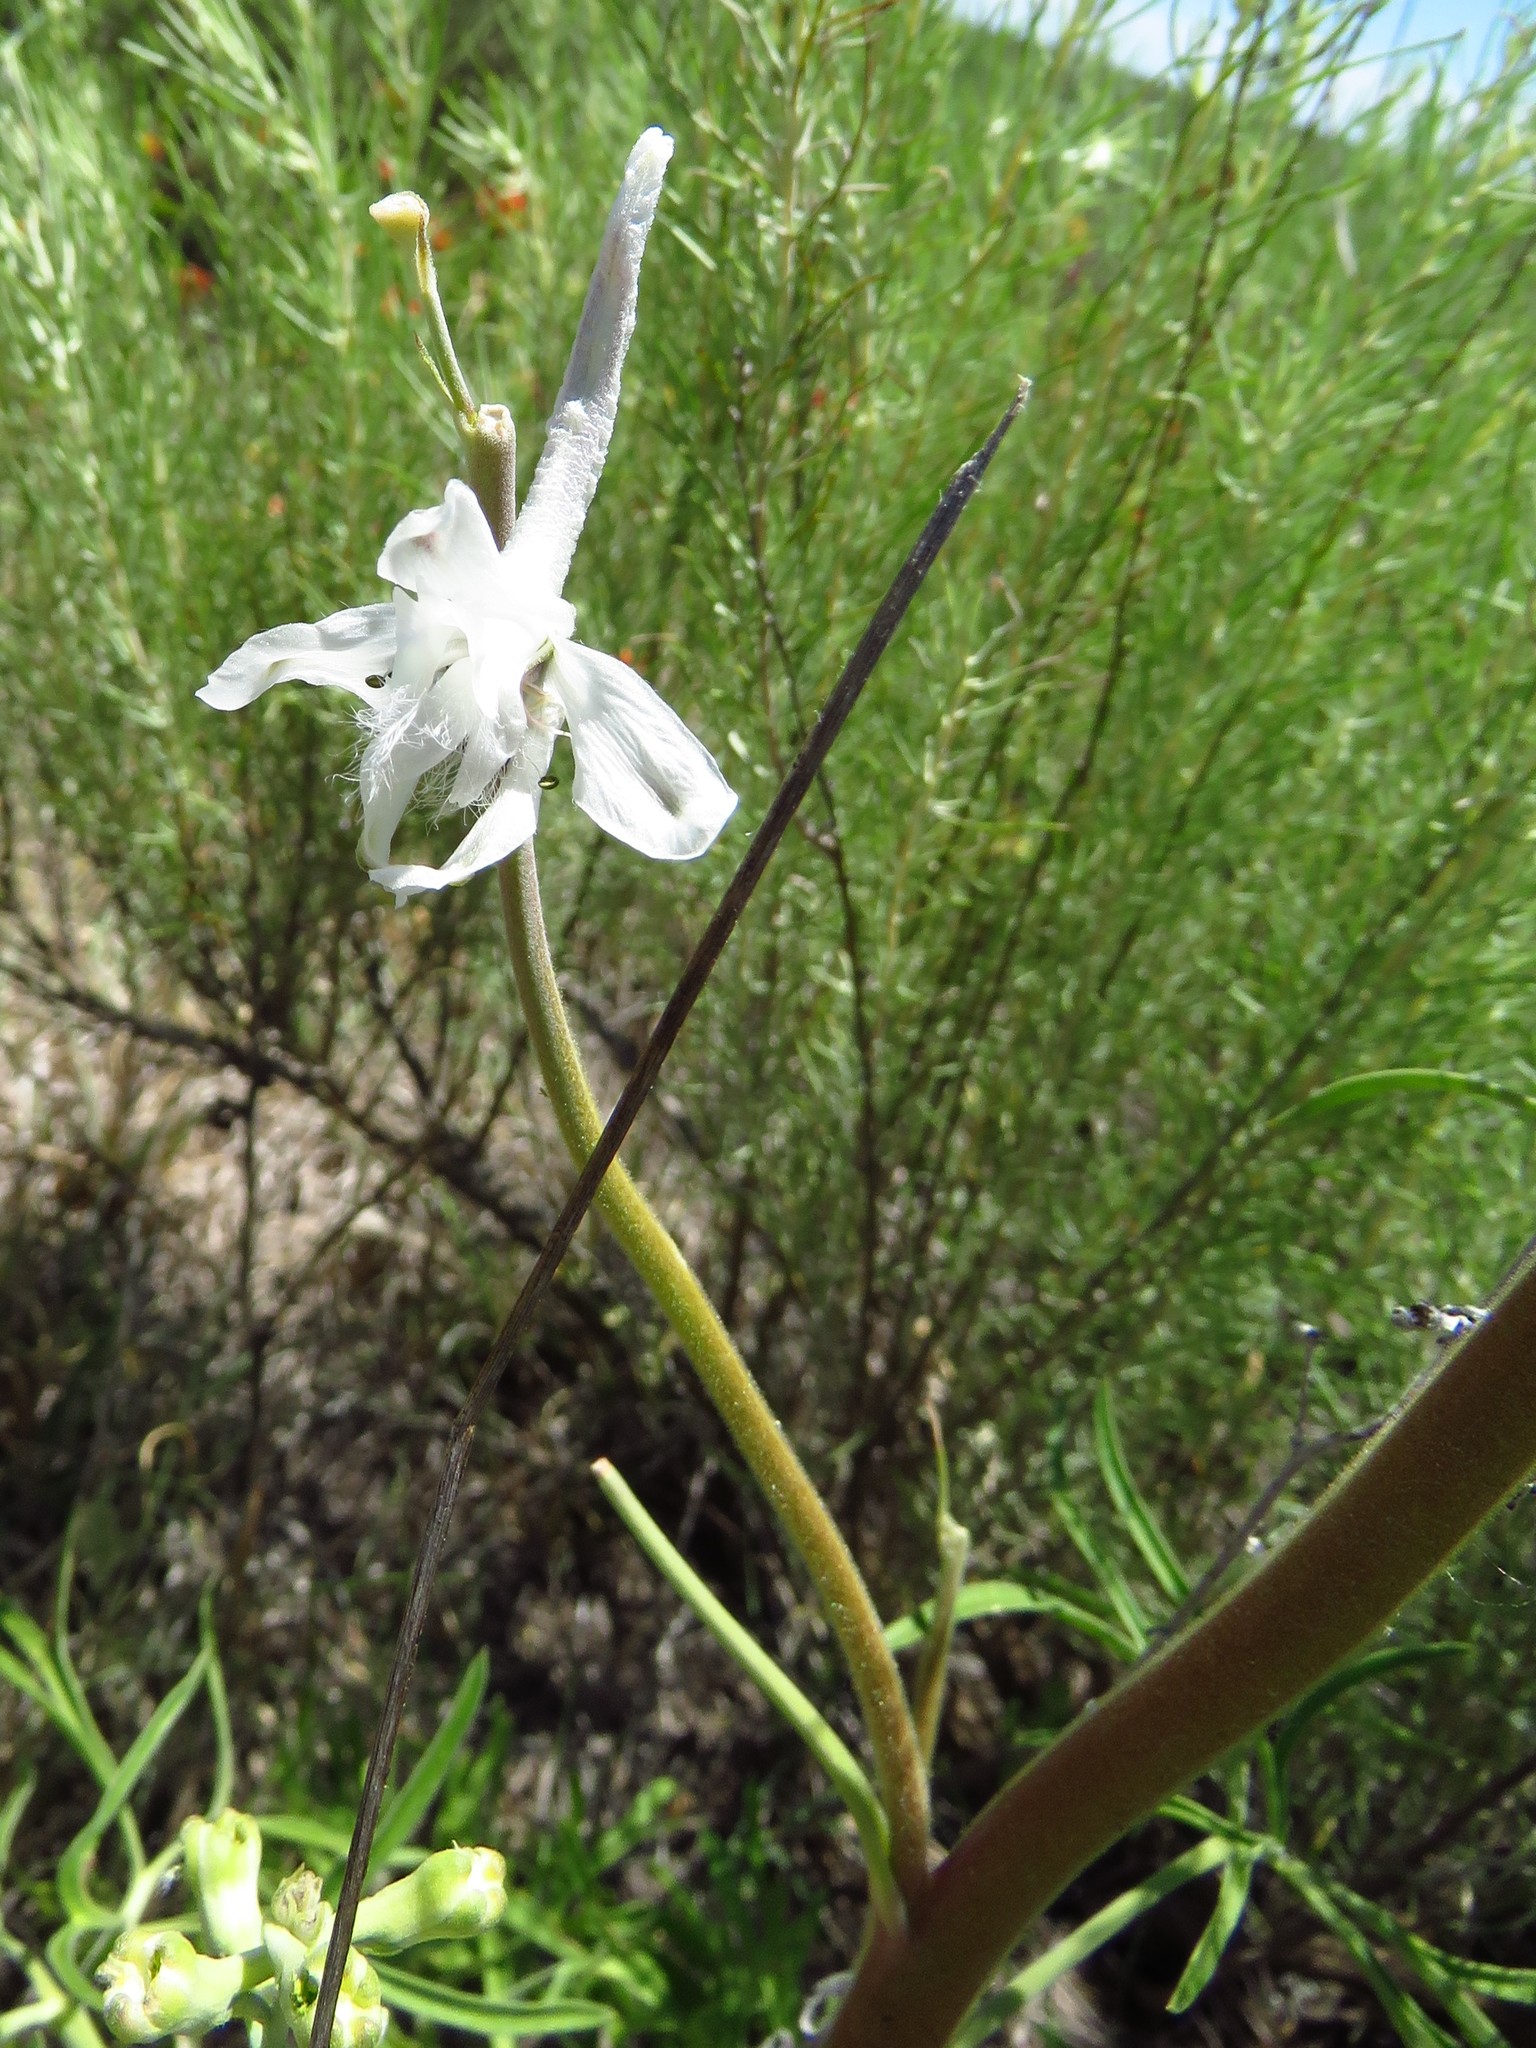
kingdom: Plantae
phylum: Tracheophyta
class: Magnoliopsida
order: Ranunculales
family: Ranunculaceae
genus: Delphinium
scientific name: Delphinium carolinianum
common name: Carolina larkspur
